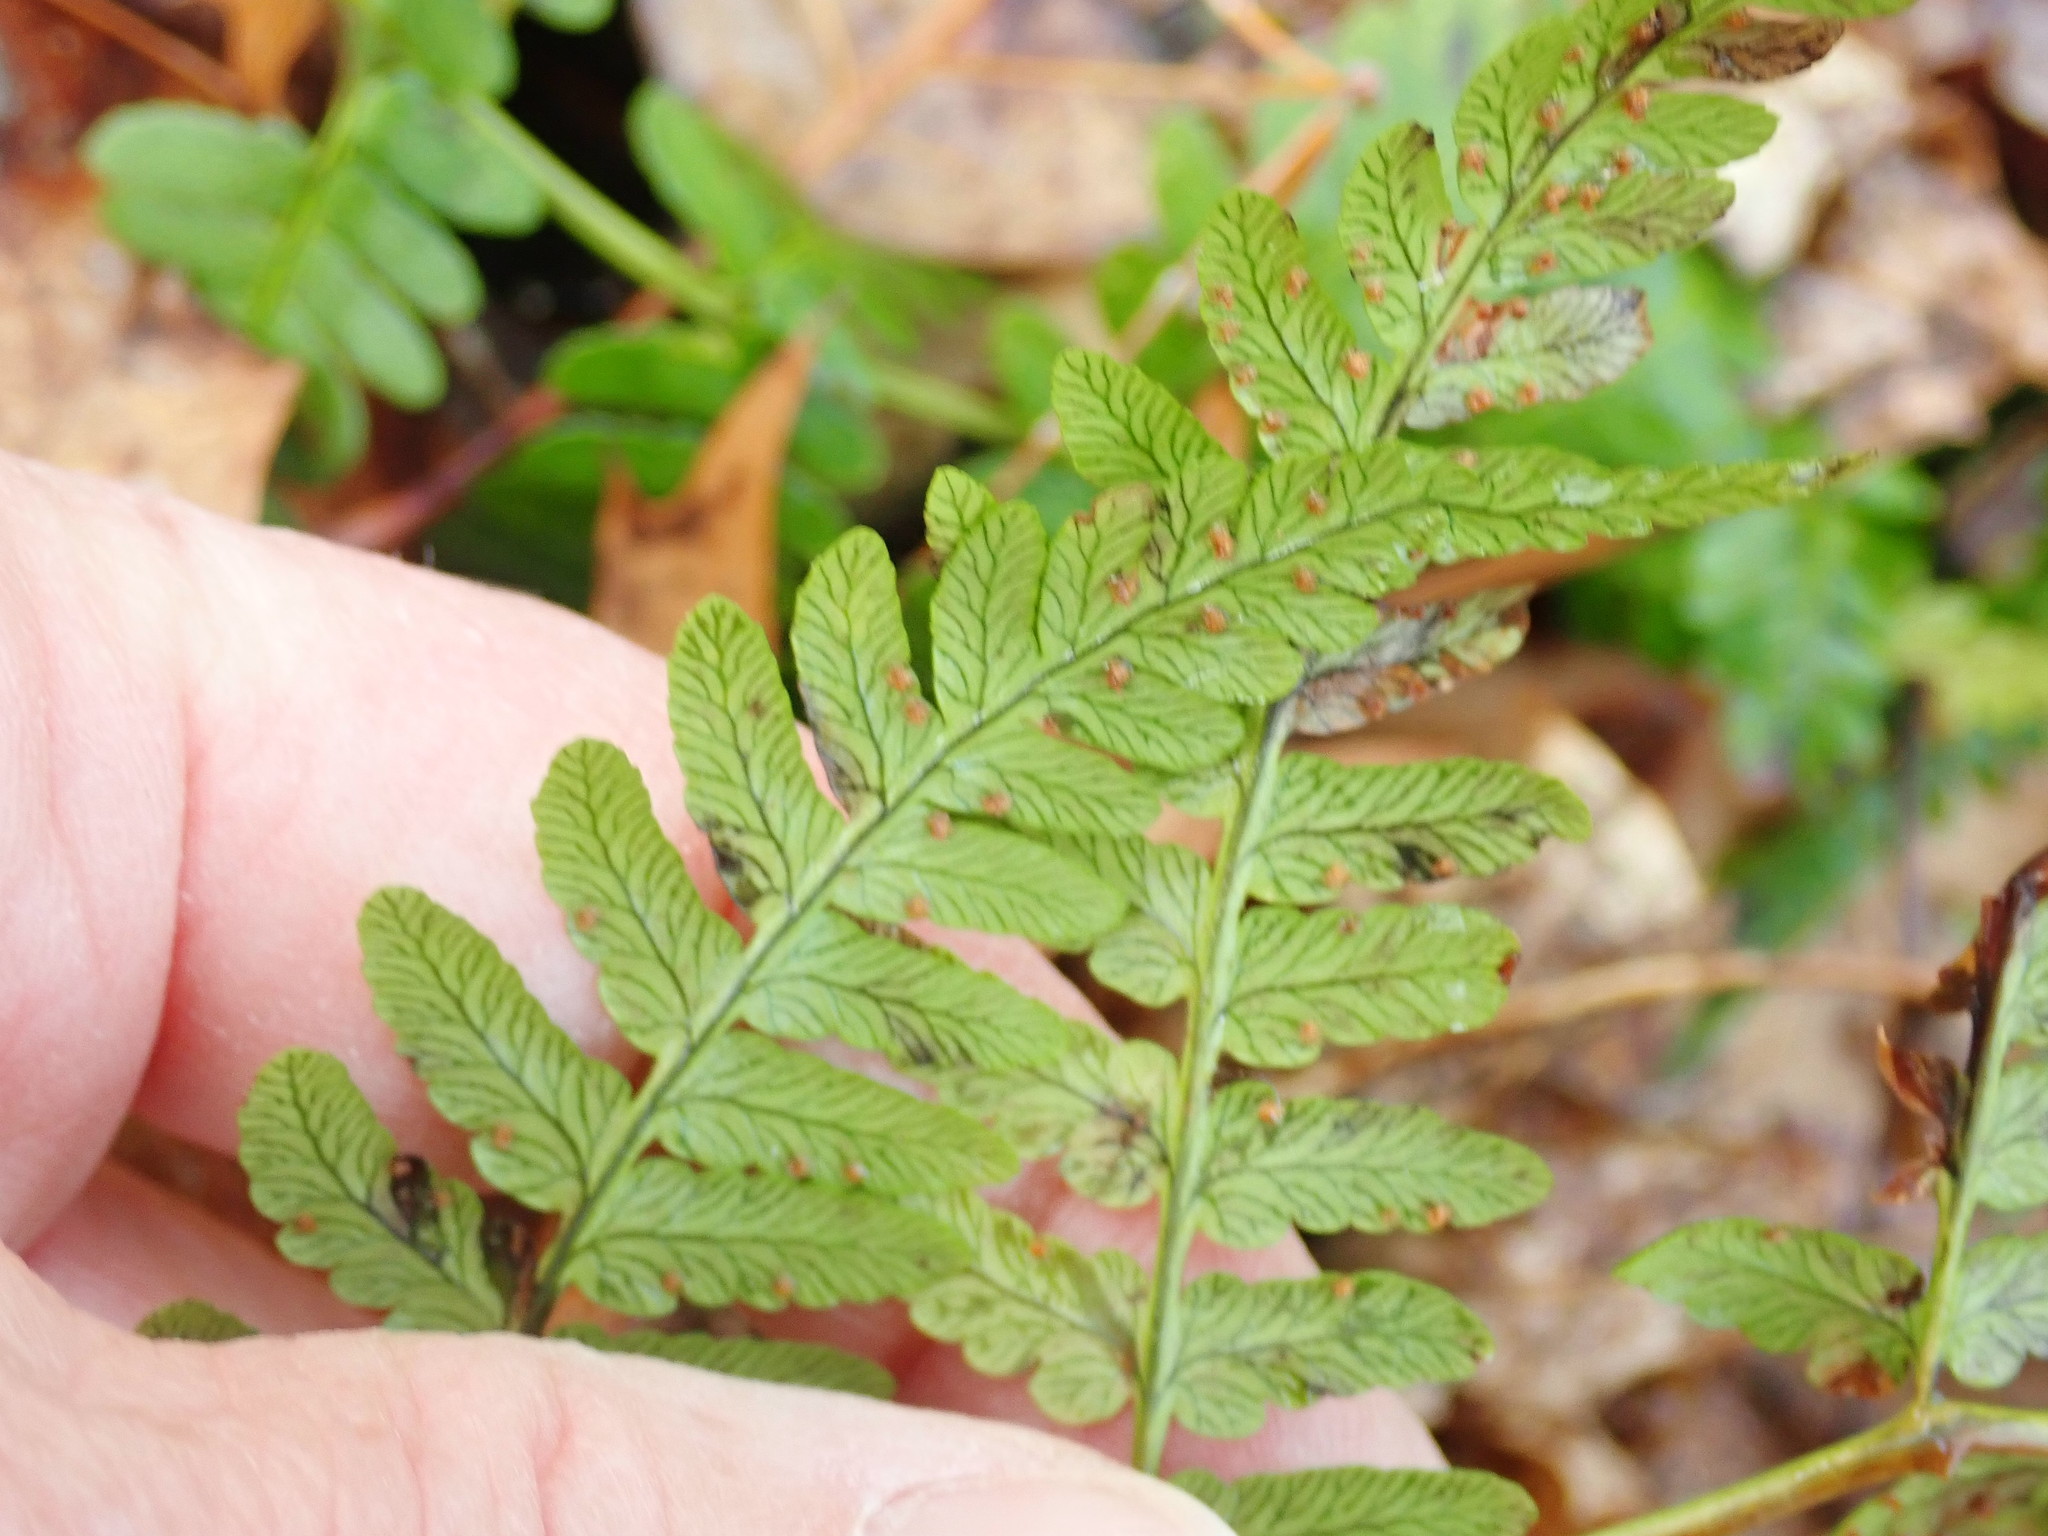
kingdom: Plantae
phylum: Tracheophyta
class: Polypodiopsida
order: Polypodiales
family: Dryopteridaceae
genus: Dryopteris
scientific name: Dryopteris marginalis
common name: Marginal wood fern
